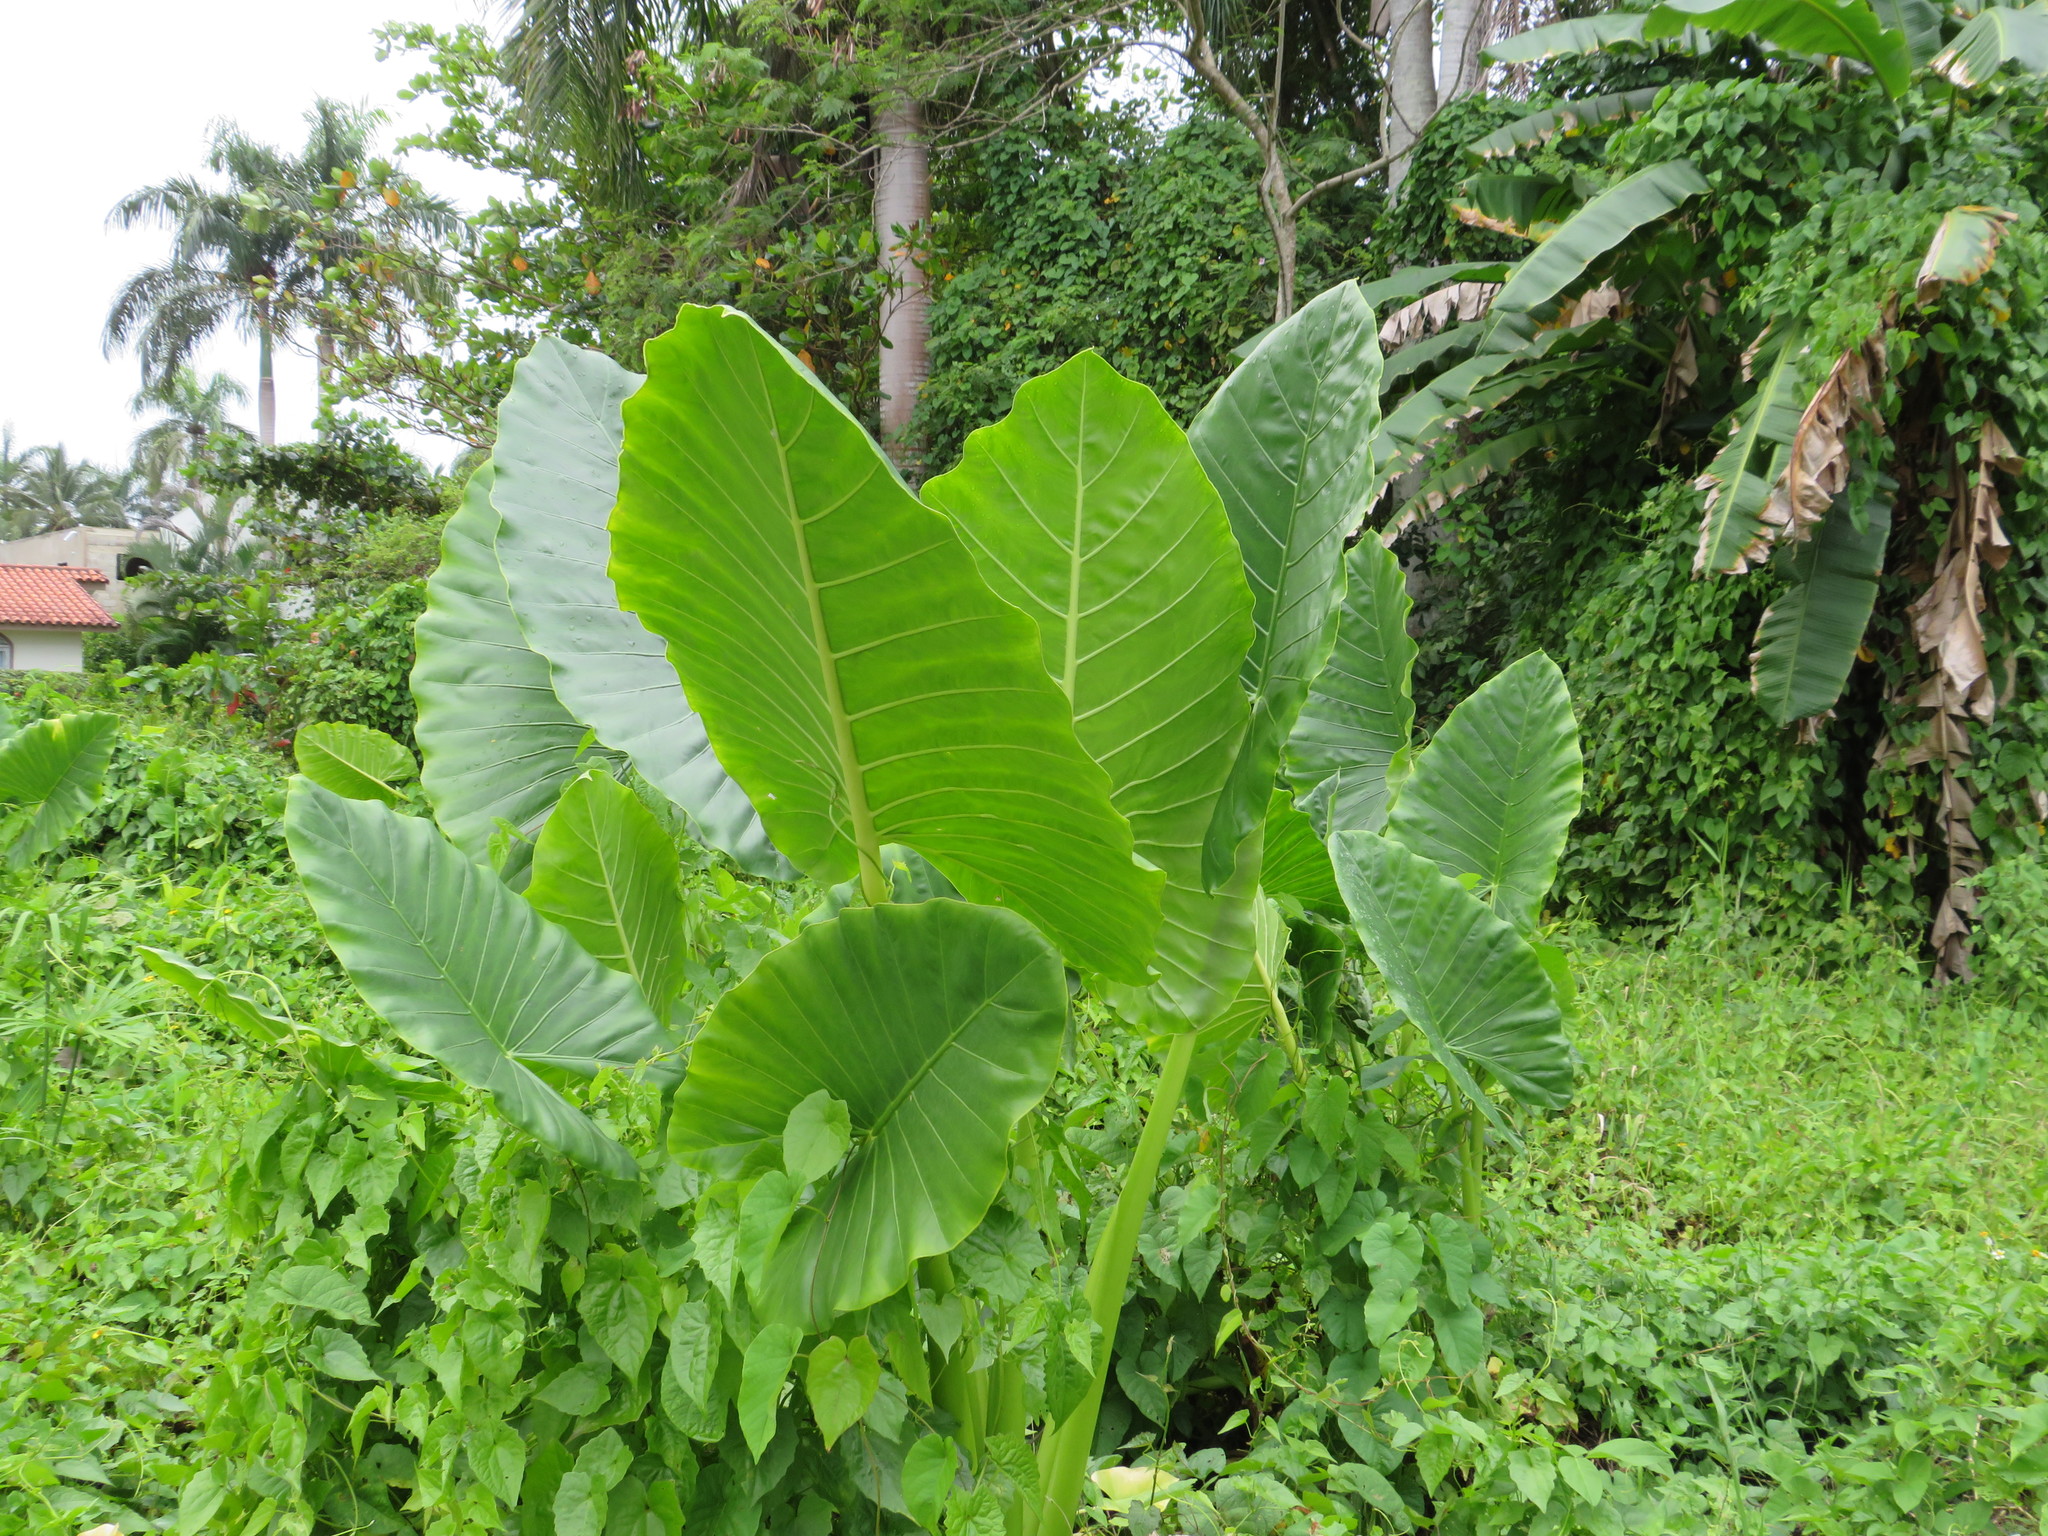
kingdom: Plantae
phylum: Tracheophyta
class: Liliopsida
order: Alismatales
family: Araceae
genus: Alocasia
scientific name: Alocasia macrorrhizos
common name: Giant taro
